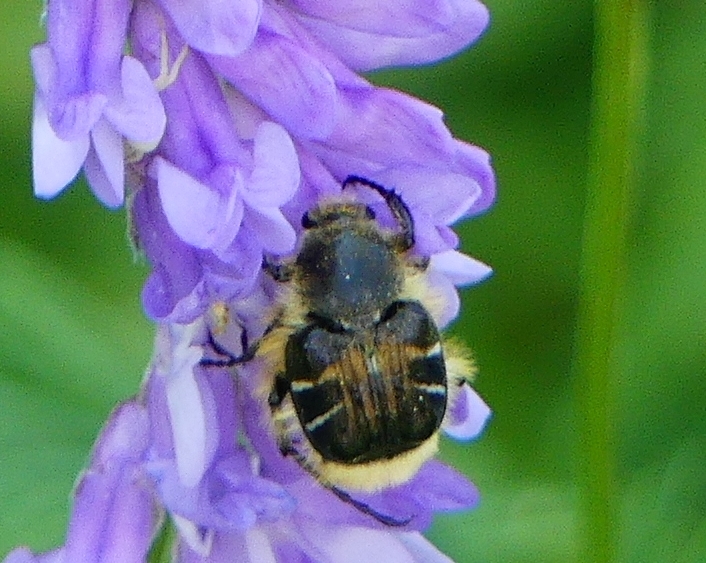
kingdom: Animalia
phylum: Arthropoda
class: Insecta
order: Coleoptera
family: Scarabaeidae
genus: Trichiotinus
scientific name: Trichiotinus assimilis
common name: Bee-mimic beetle
